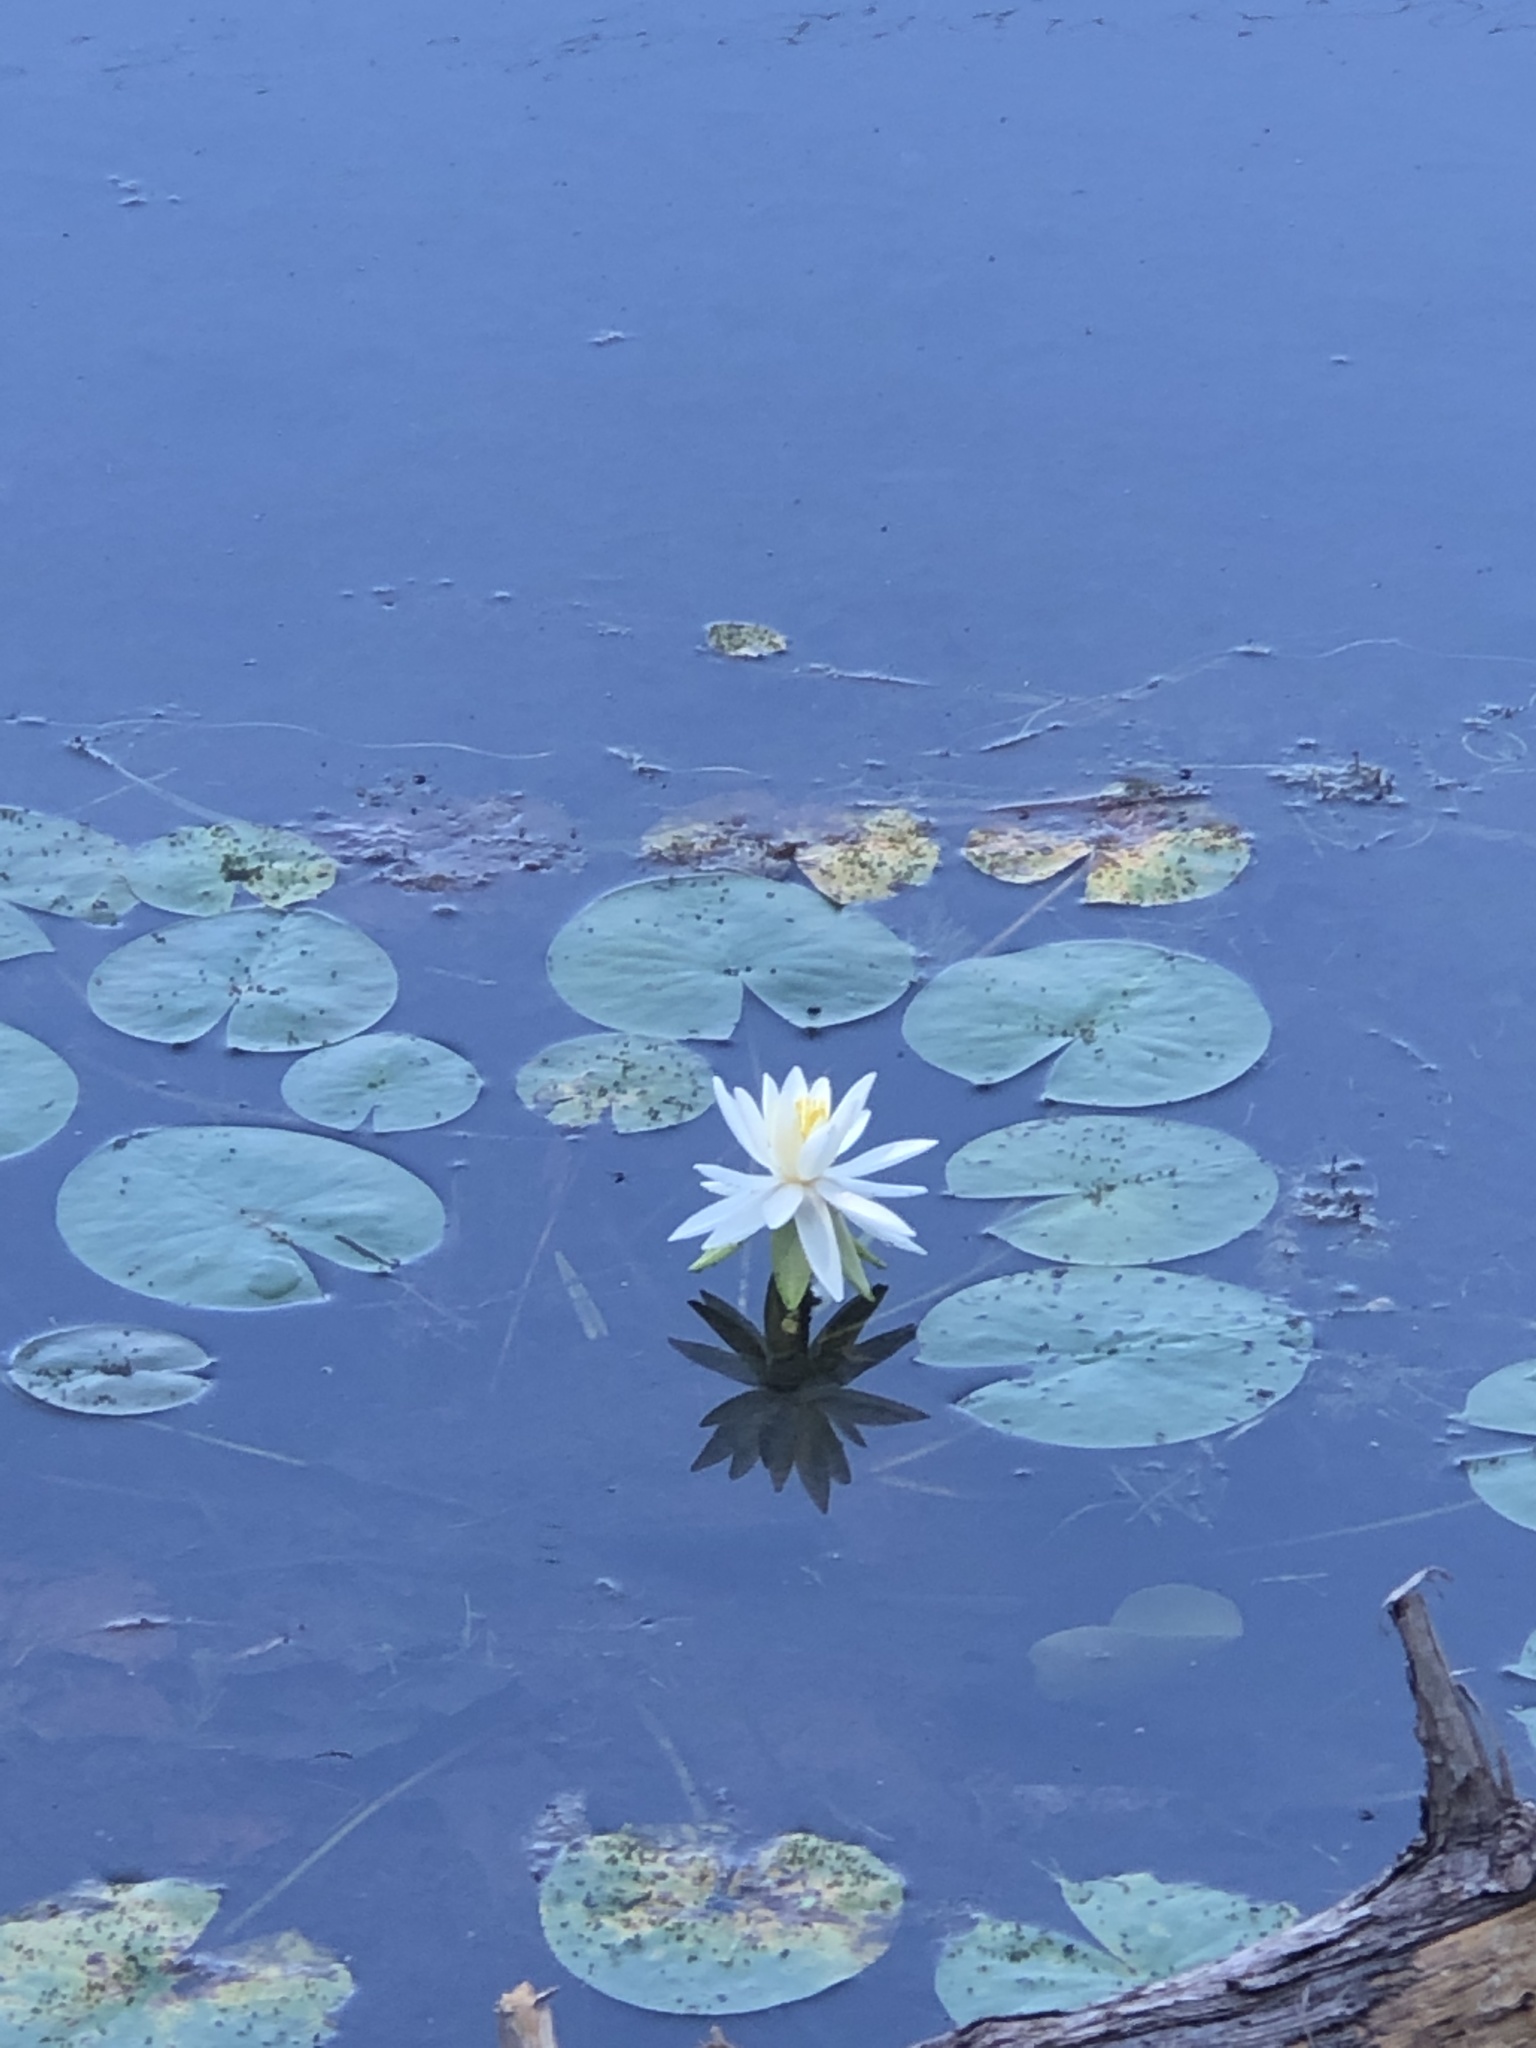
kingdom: Plantae
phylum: Tracheophyta
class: Magnoliopsida
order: Nymphaeales
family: Nymphaeaceae
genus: Nymphaea
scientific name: Nymphaea odorata
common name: Fragrant water-lily
